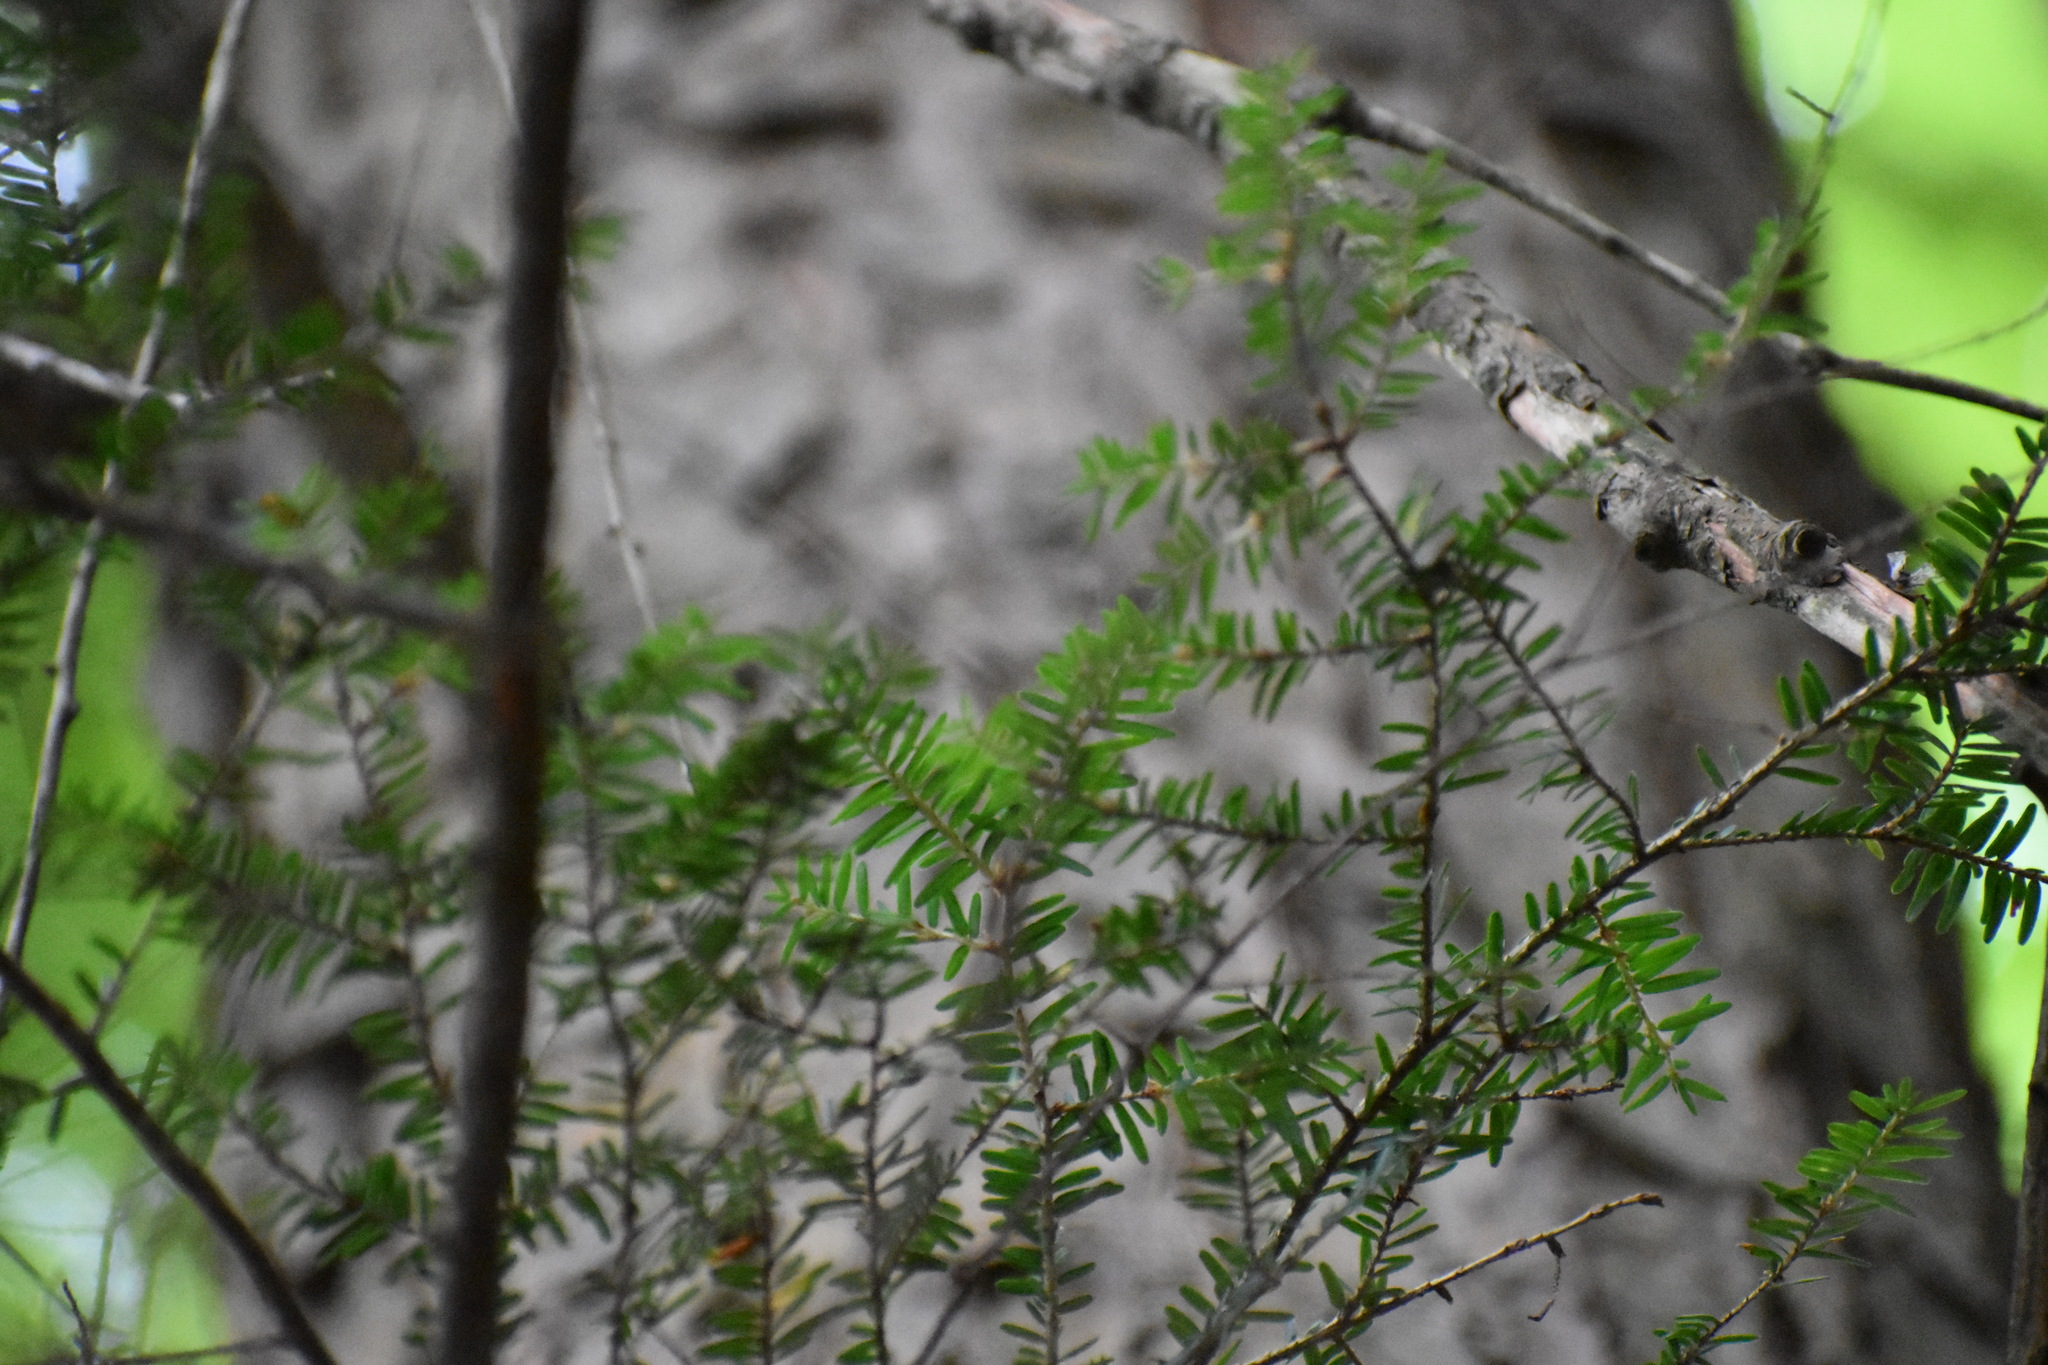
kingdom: Plantae
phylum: Tracheophyta
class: Pinopsida
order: Pinales
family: Pinaceae
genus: Tsuga
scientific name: Tsuga canadensis
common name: Eastern hemlock
